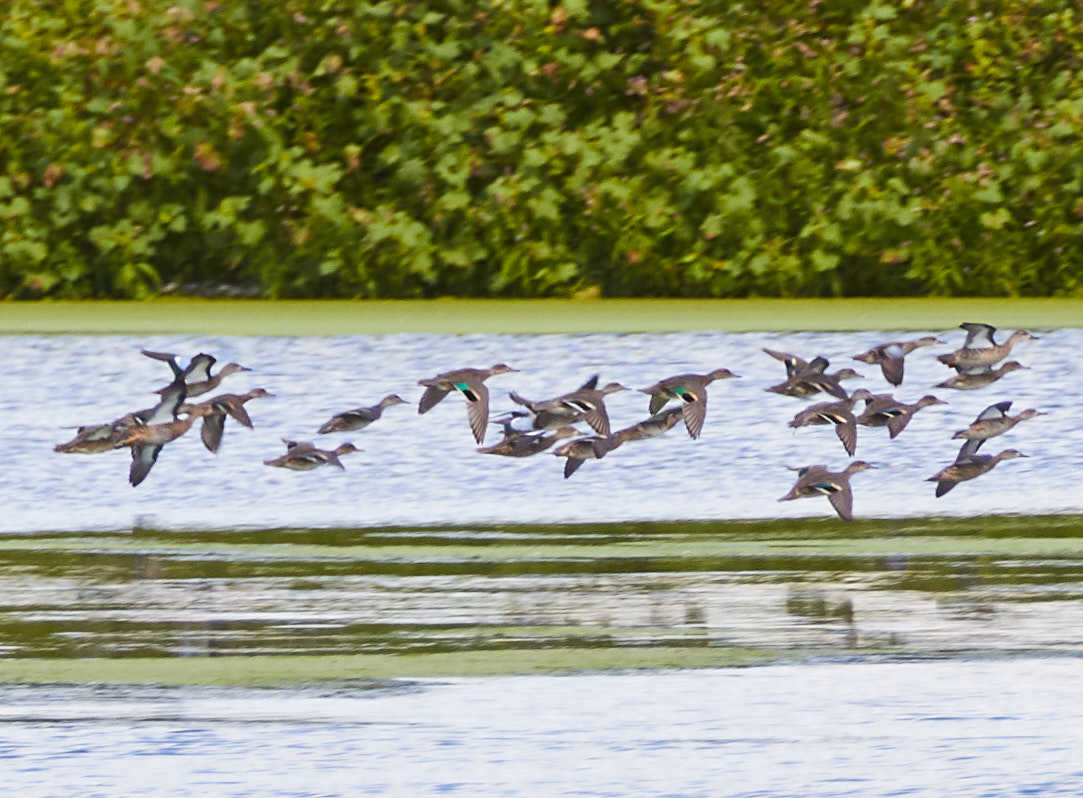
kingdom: Animalia
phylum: Chordata
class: Aves
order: Anseriformes
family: Anatidae
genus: Anas
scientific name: Anas crecca
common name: Eurasian teal
